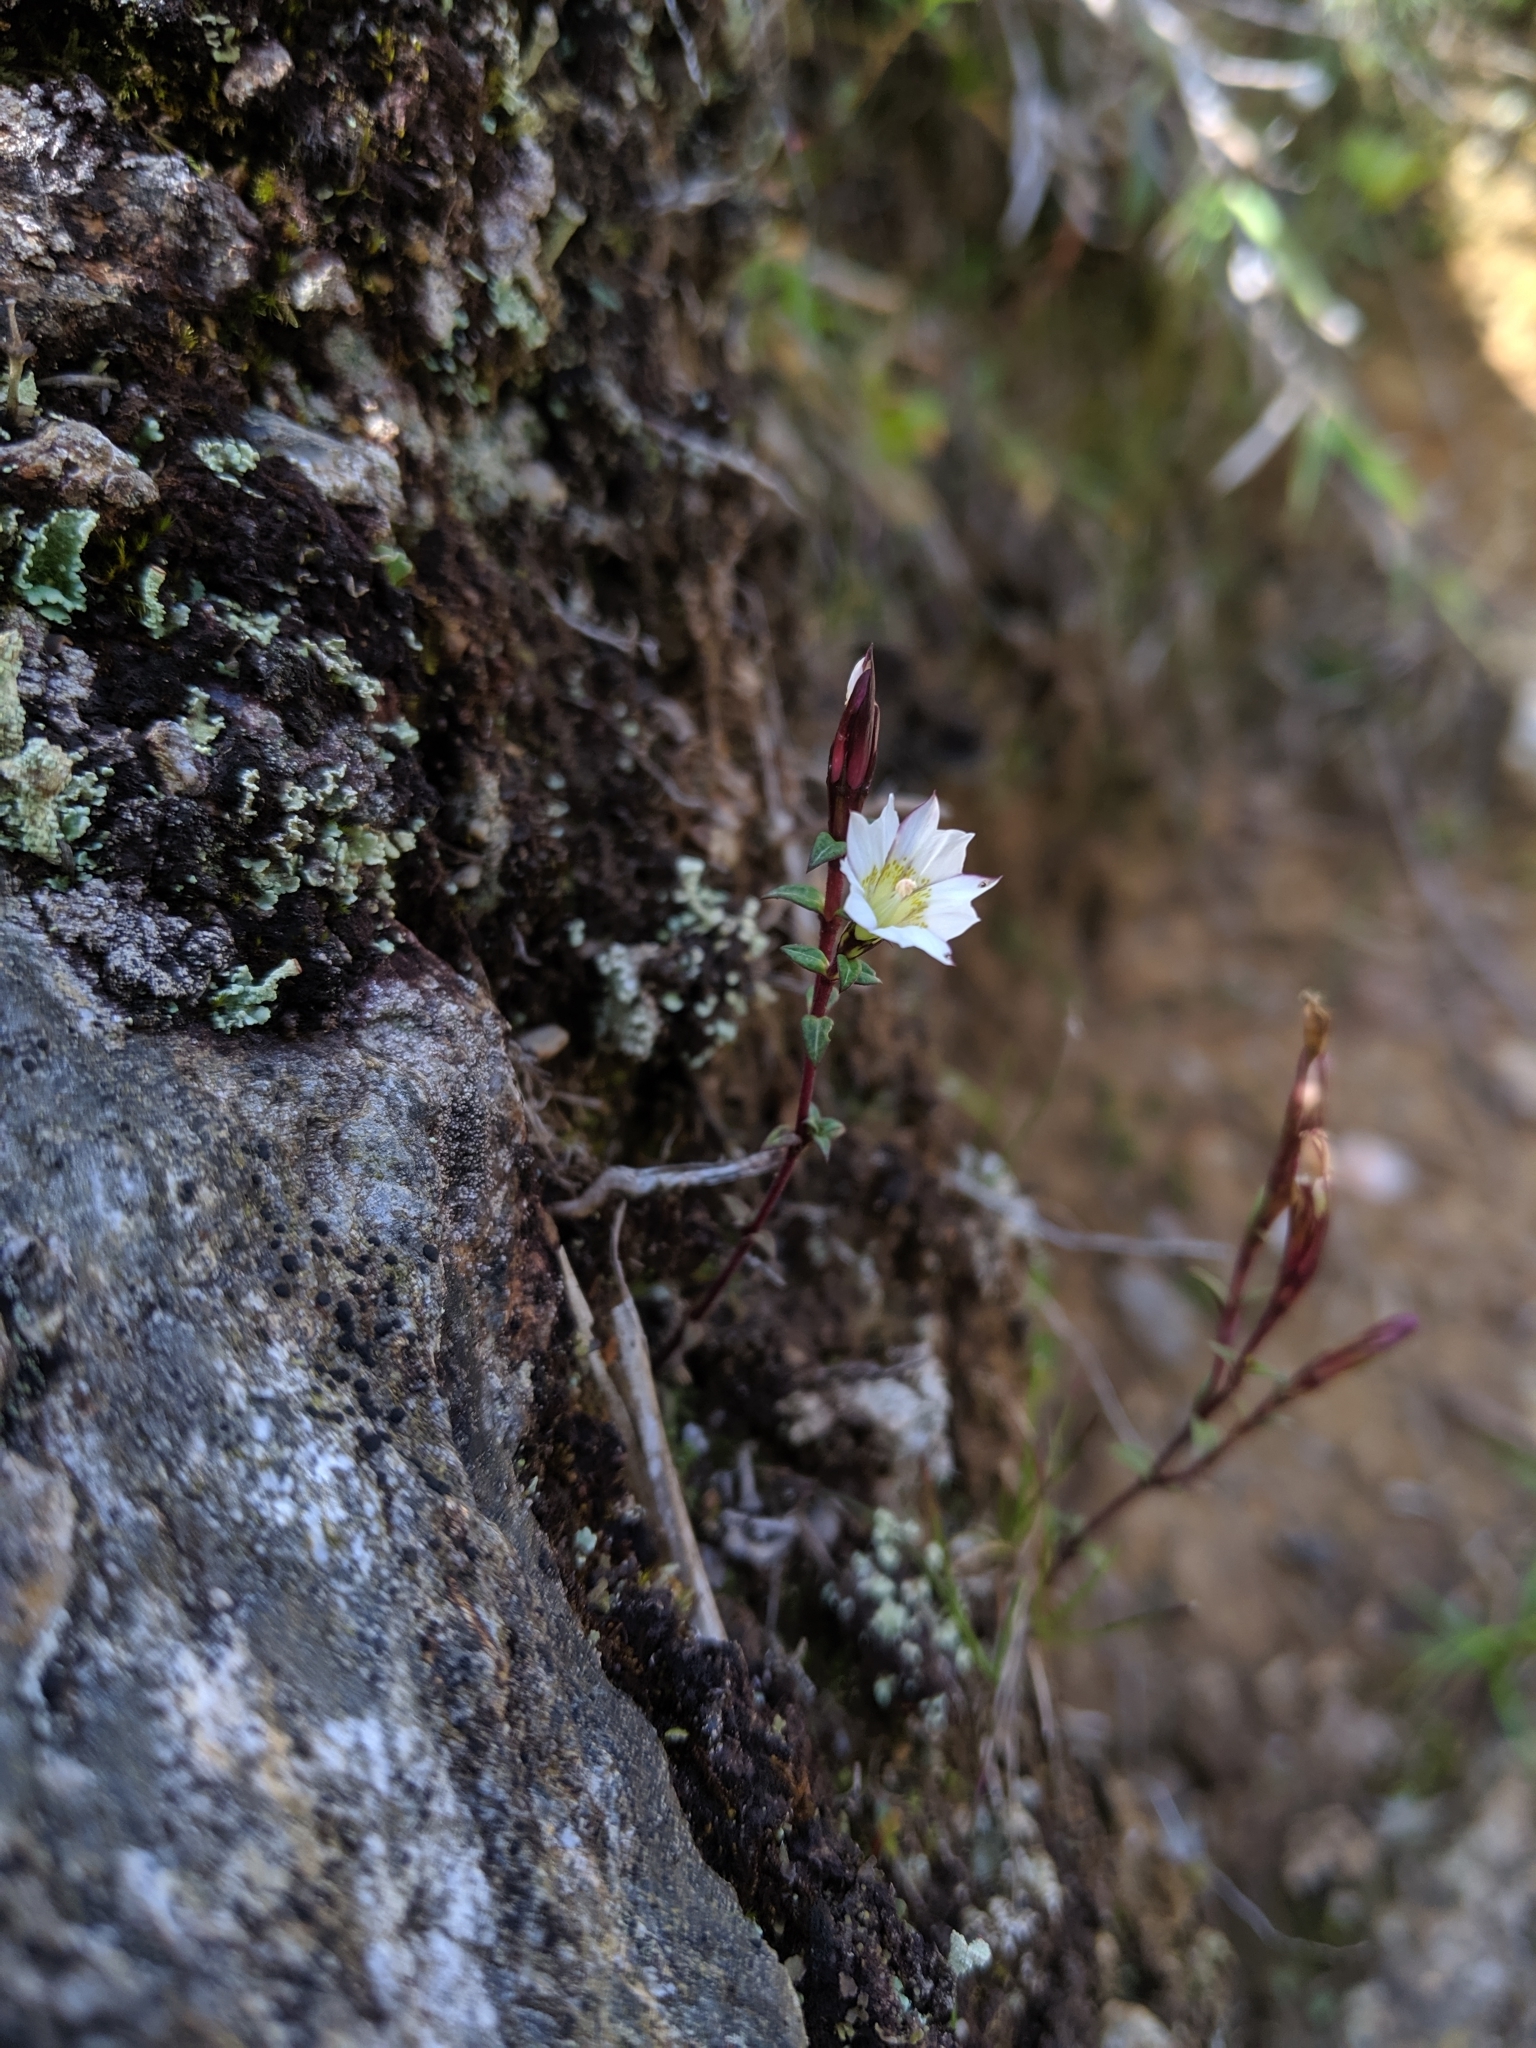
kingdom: Plantae
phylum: Tracheophyta
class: Magnoliopsida
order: Gentianales
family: Gentianaceae
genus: Gentiana
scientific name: Gentiana flavomaculata
